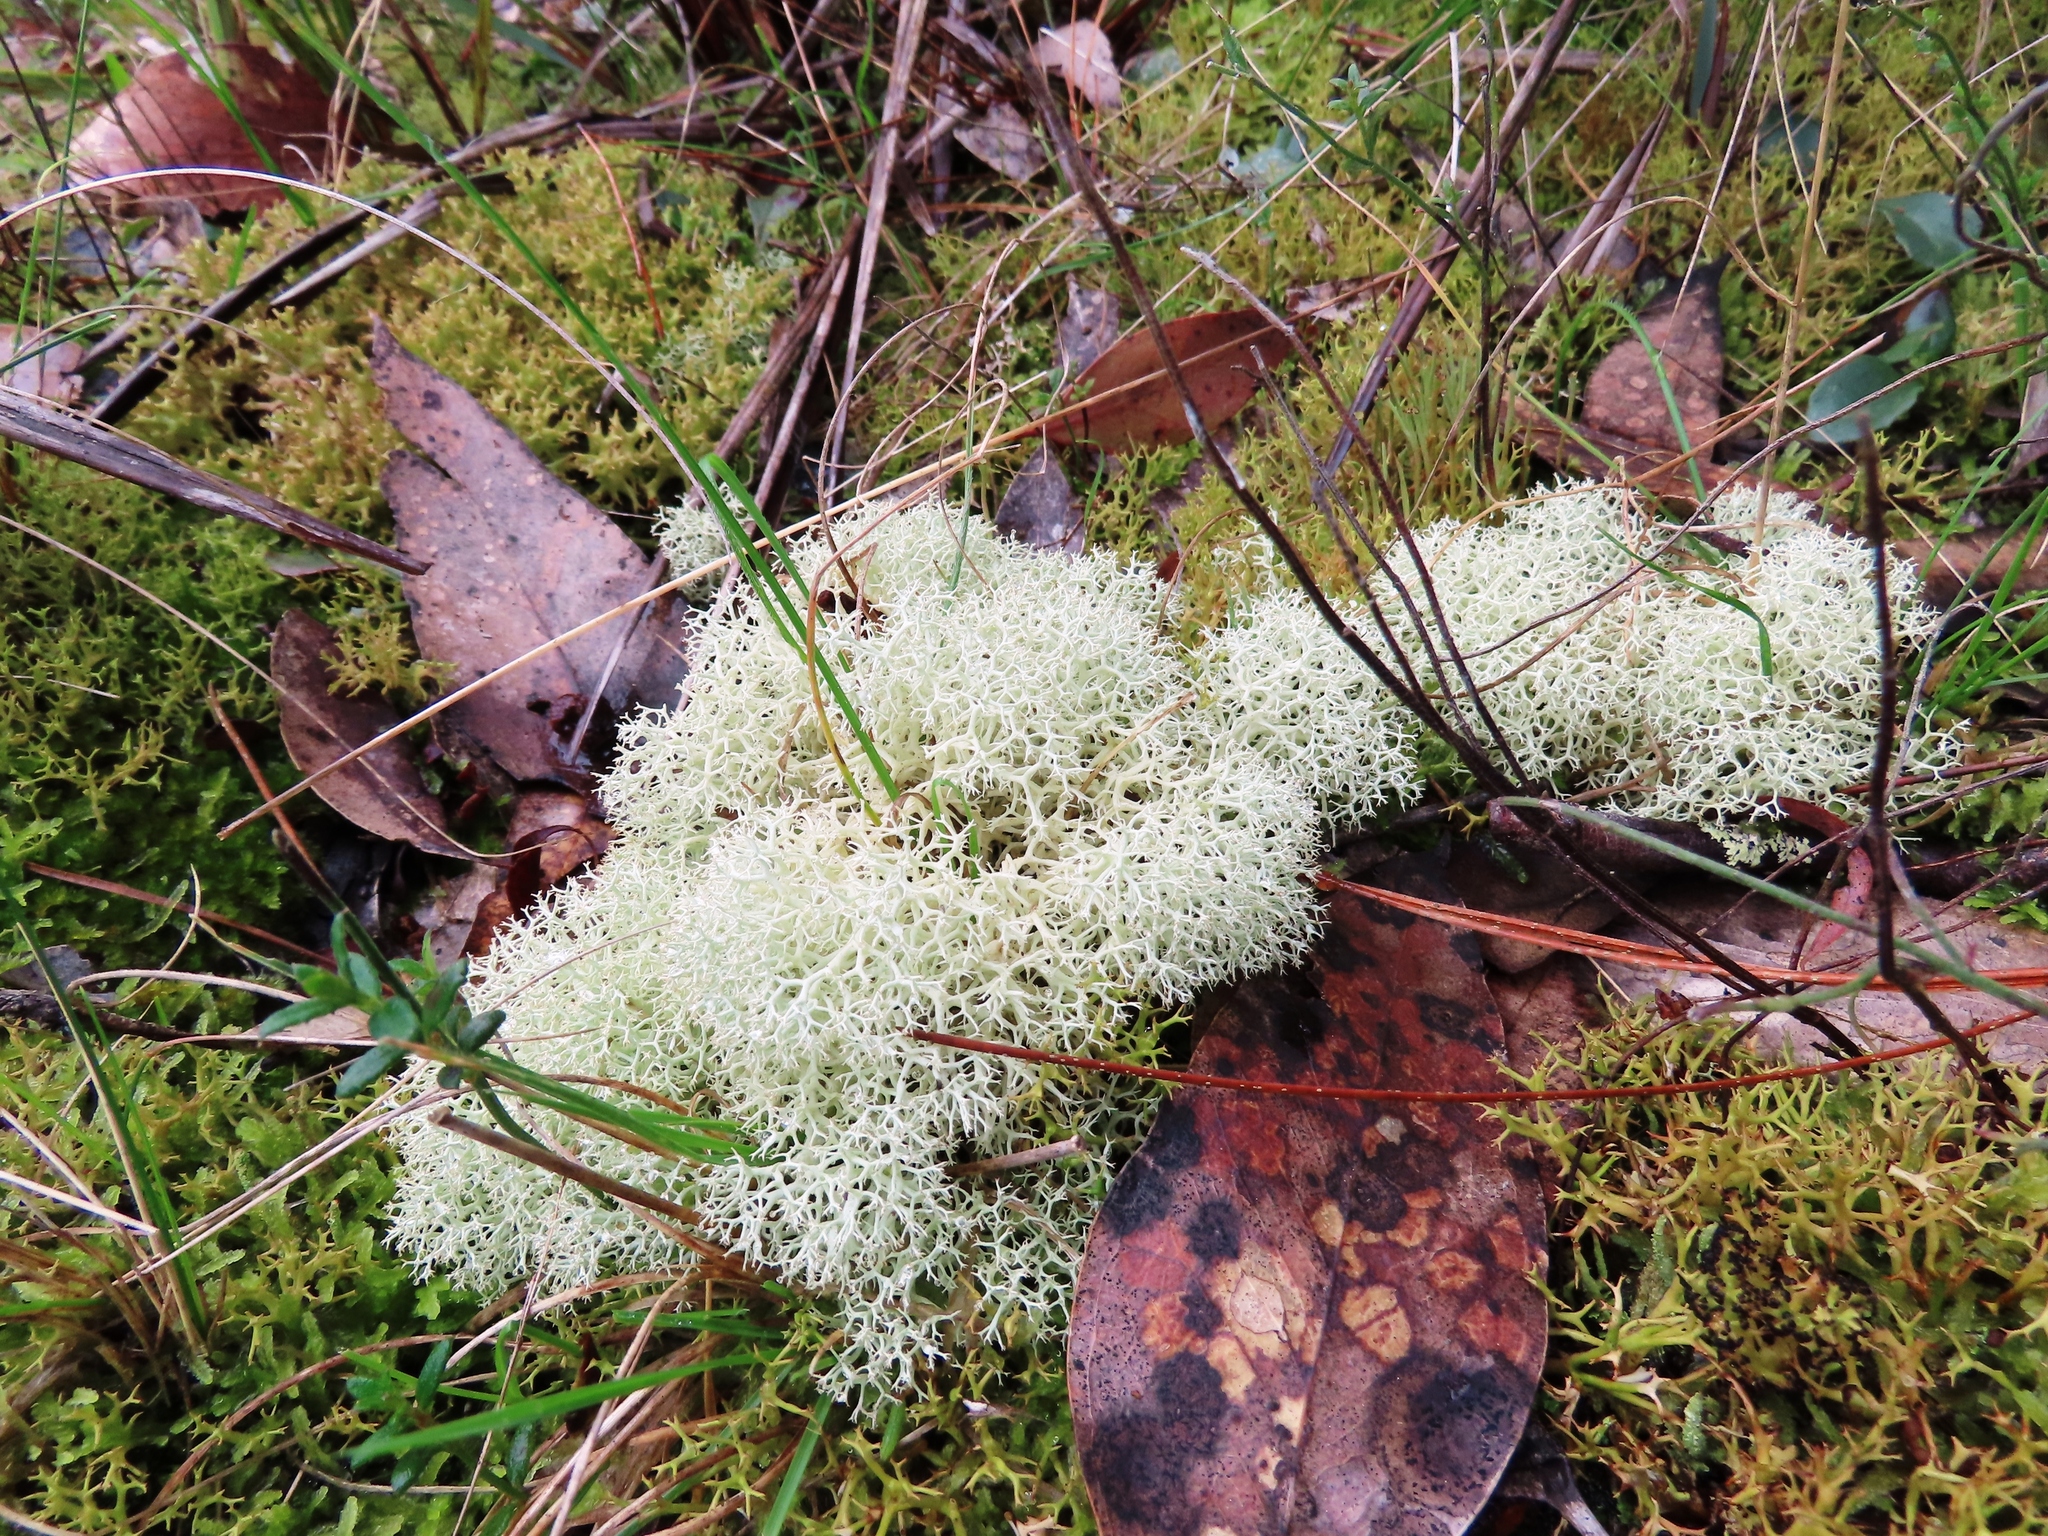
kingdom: Fungi
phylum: Ascomycota
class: Lecanoromycetes
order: Lecanorales
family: Cladoniaceae
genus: Cladonia
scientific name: Cladonia confusa
